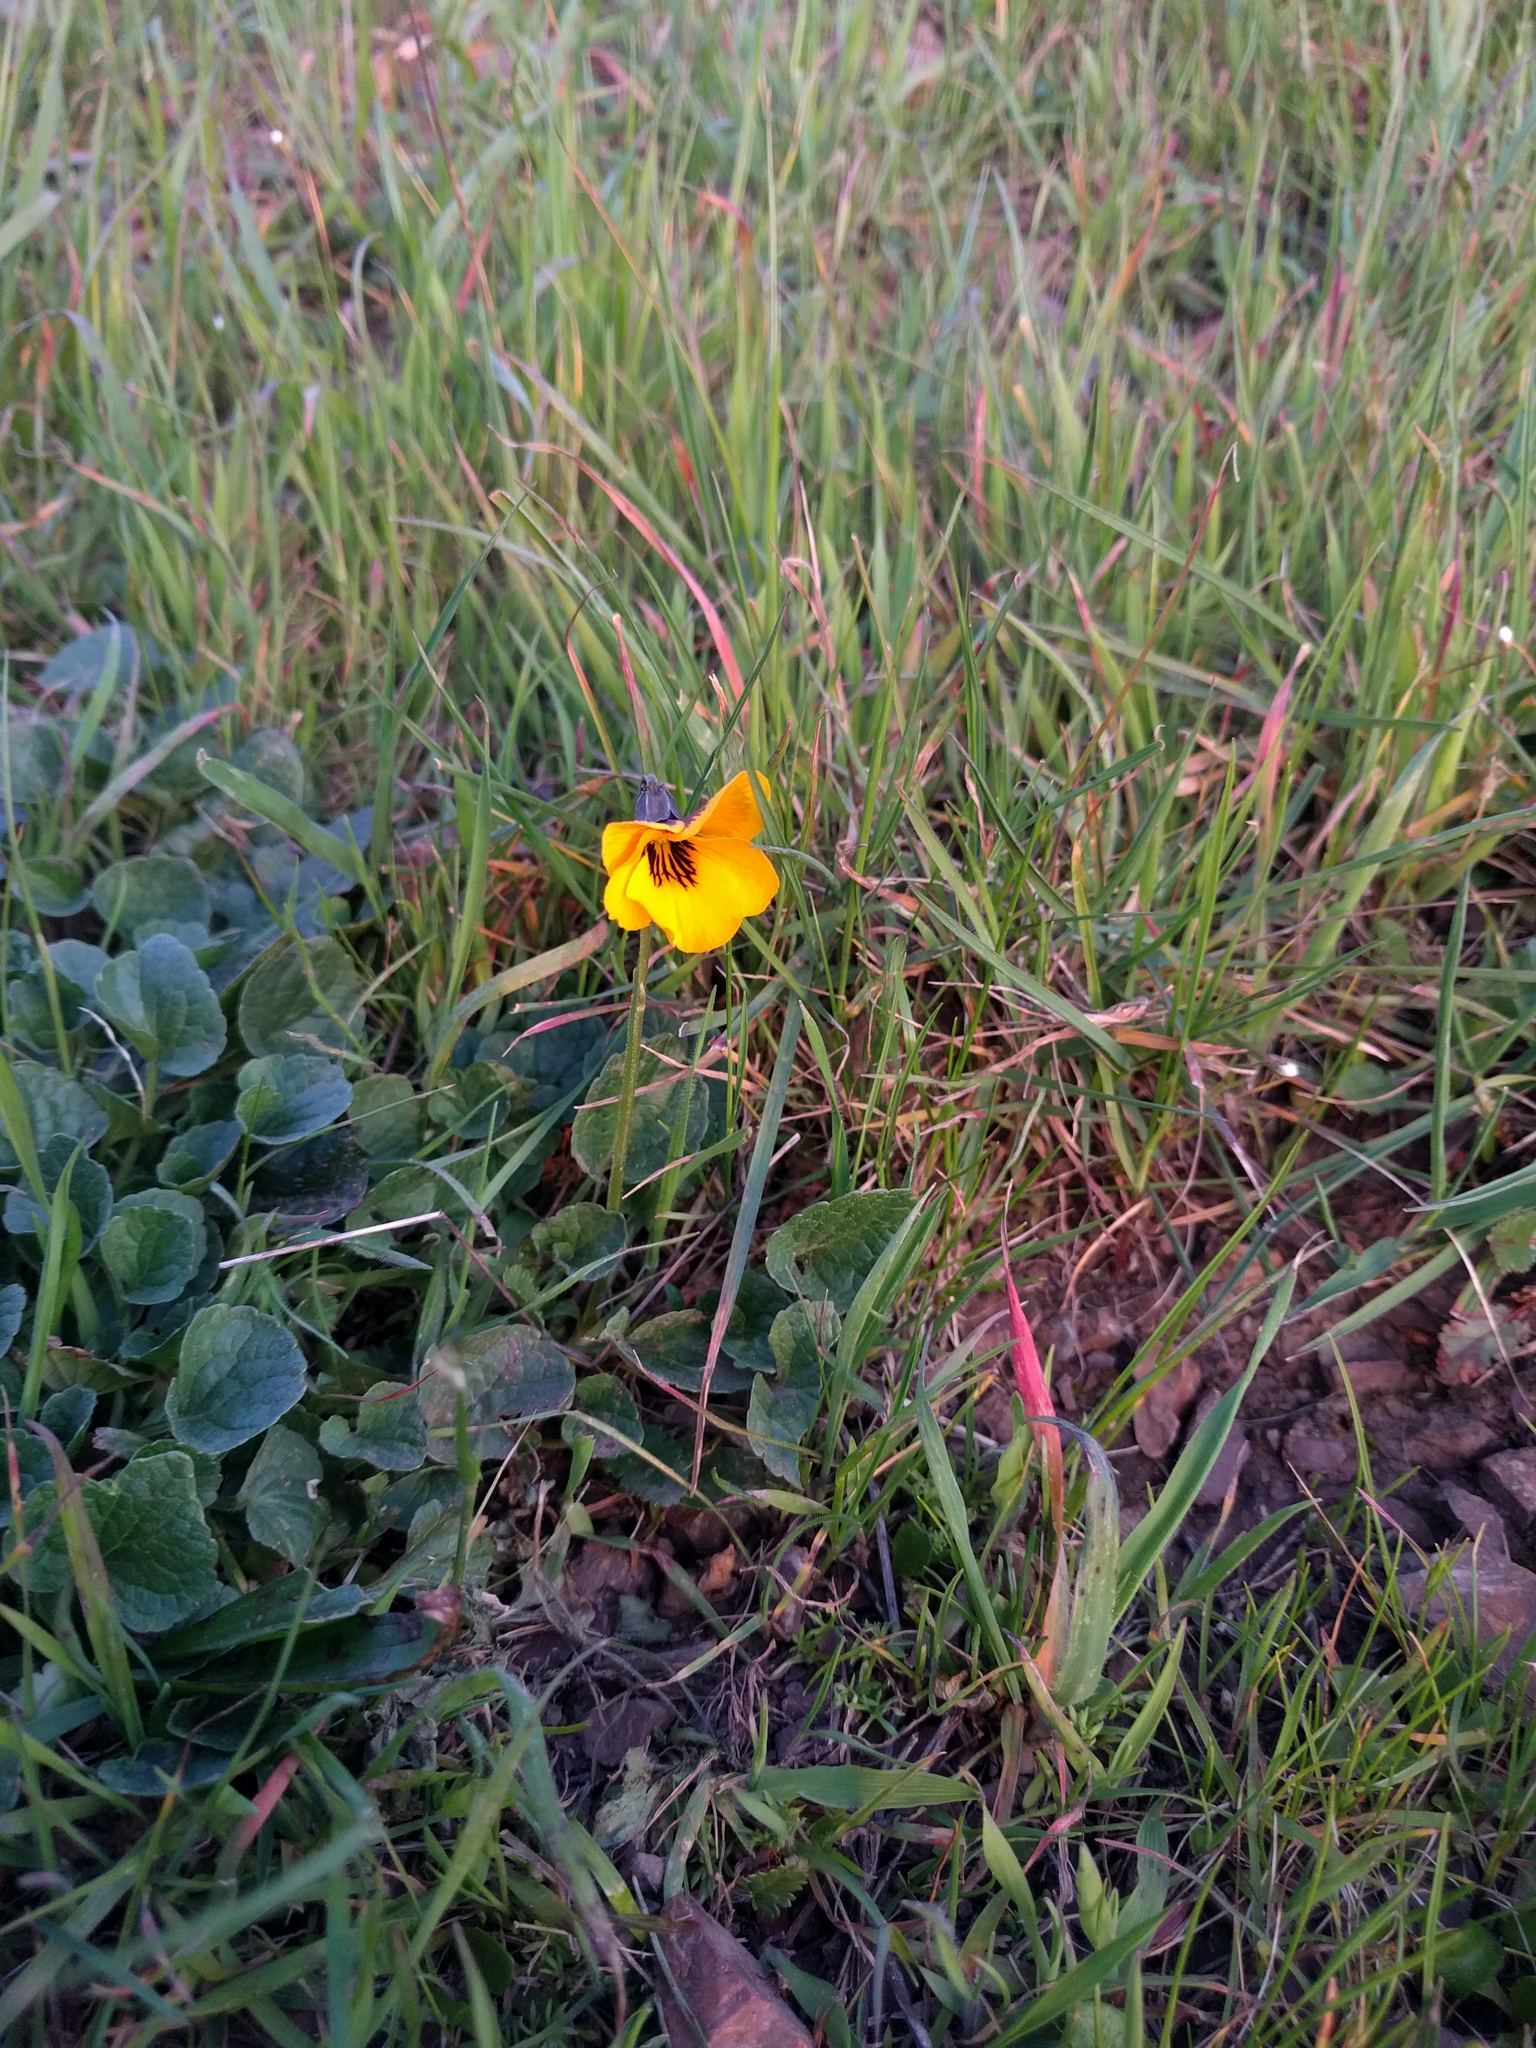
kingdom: Plantae
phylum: Tracheophyta
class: Magnoliopsida
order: Malpighiales
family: Violaceae
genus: Viola
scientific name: Viola pedunculata
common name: California golden violet
